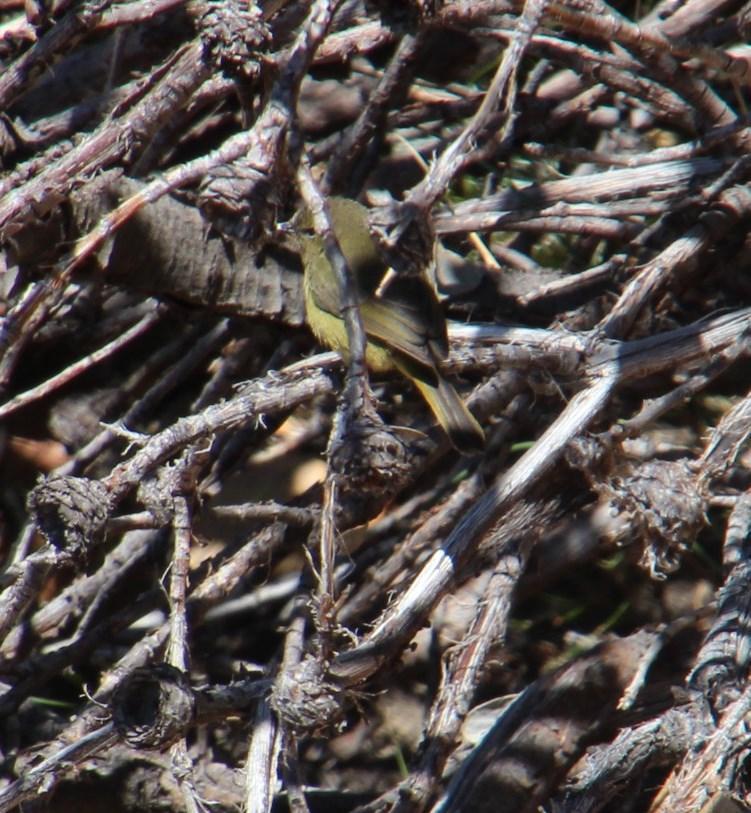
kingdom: Animalia
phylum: Chordata
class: Aves
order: Passeriformes
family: Nectariniidae
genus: Anthobaphes
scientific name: Anthobaphes violacea
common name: Orange-breasted sunbird
